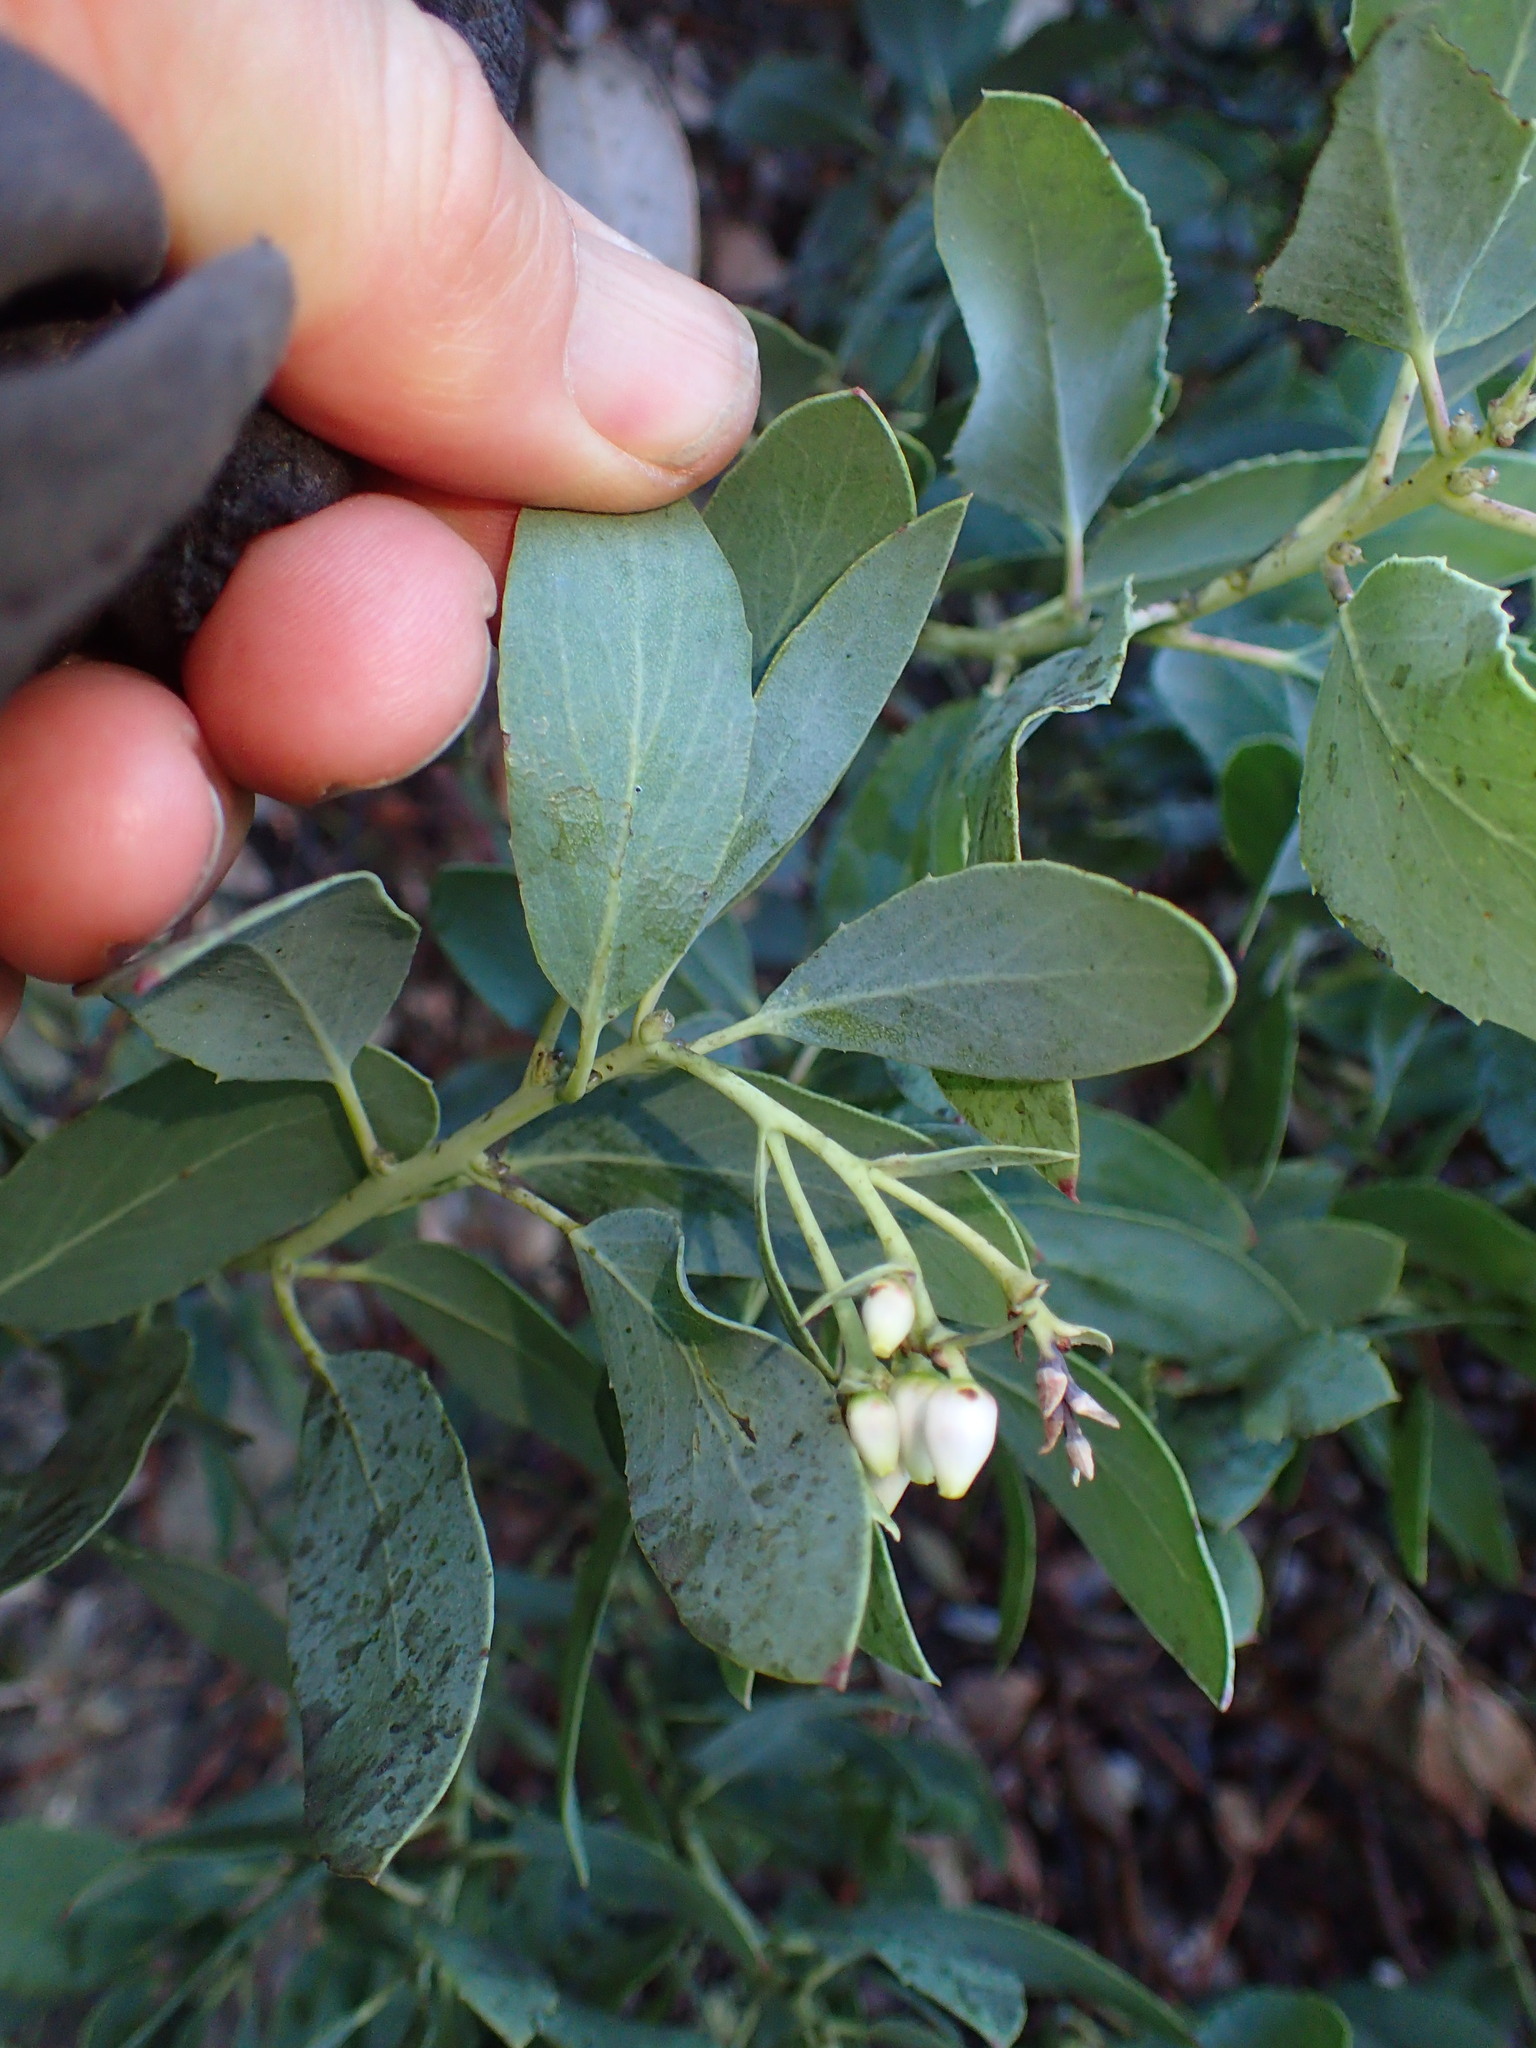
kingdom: Plantae
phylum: Tracheophyta
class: Magnoliopsida
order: Ericales
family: Ericaceae
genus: Arctostaphylos
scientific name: Arctostaphylos glauca
